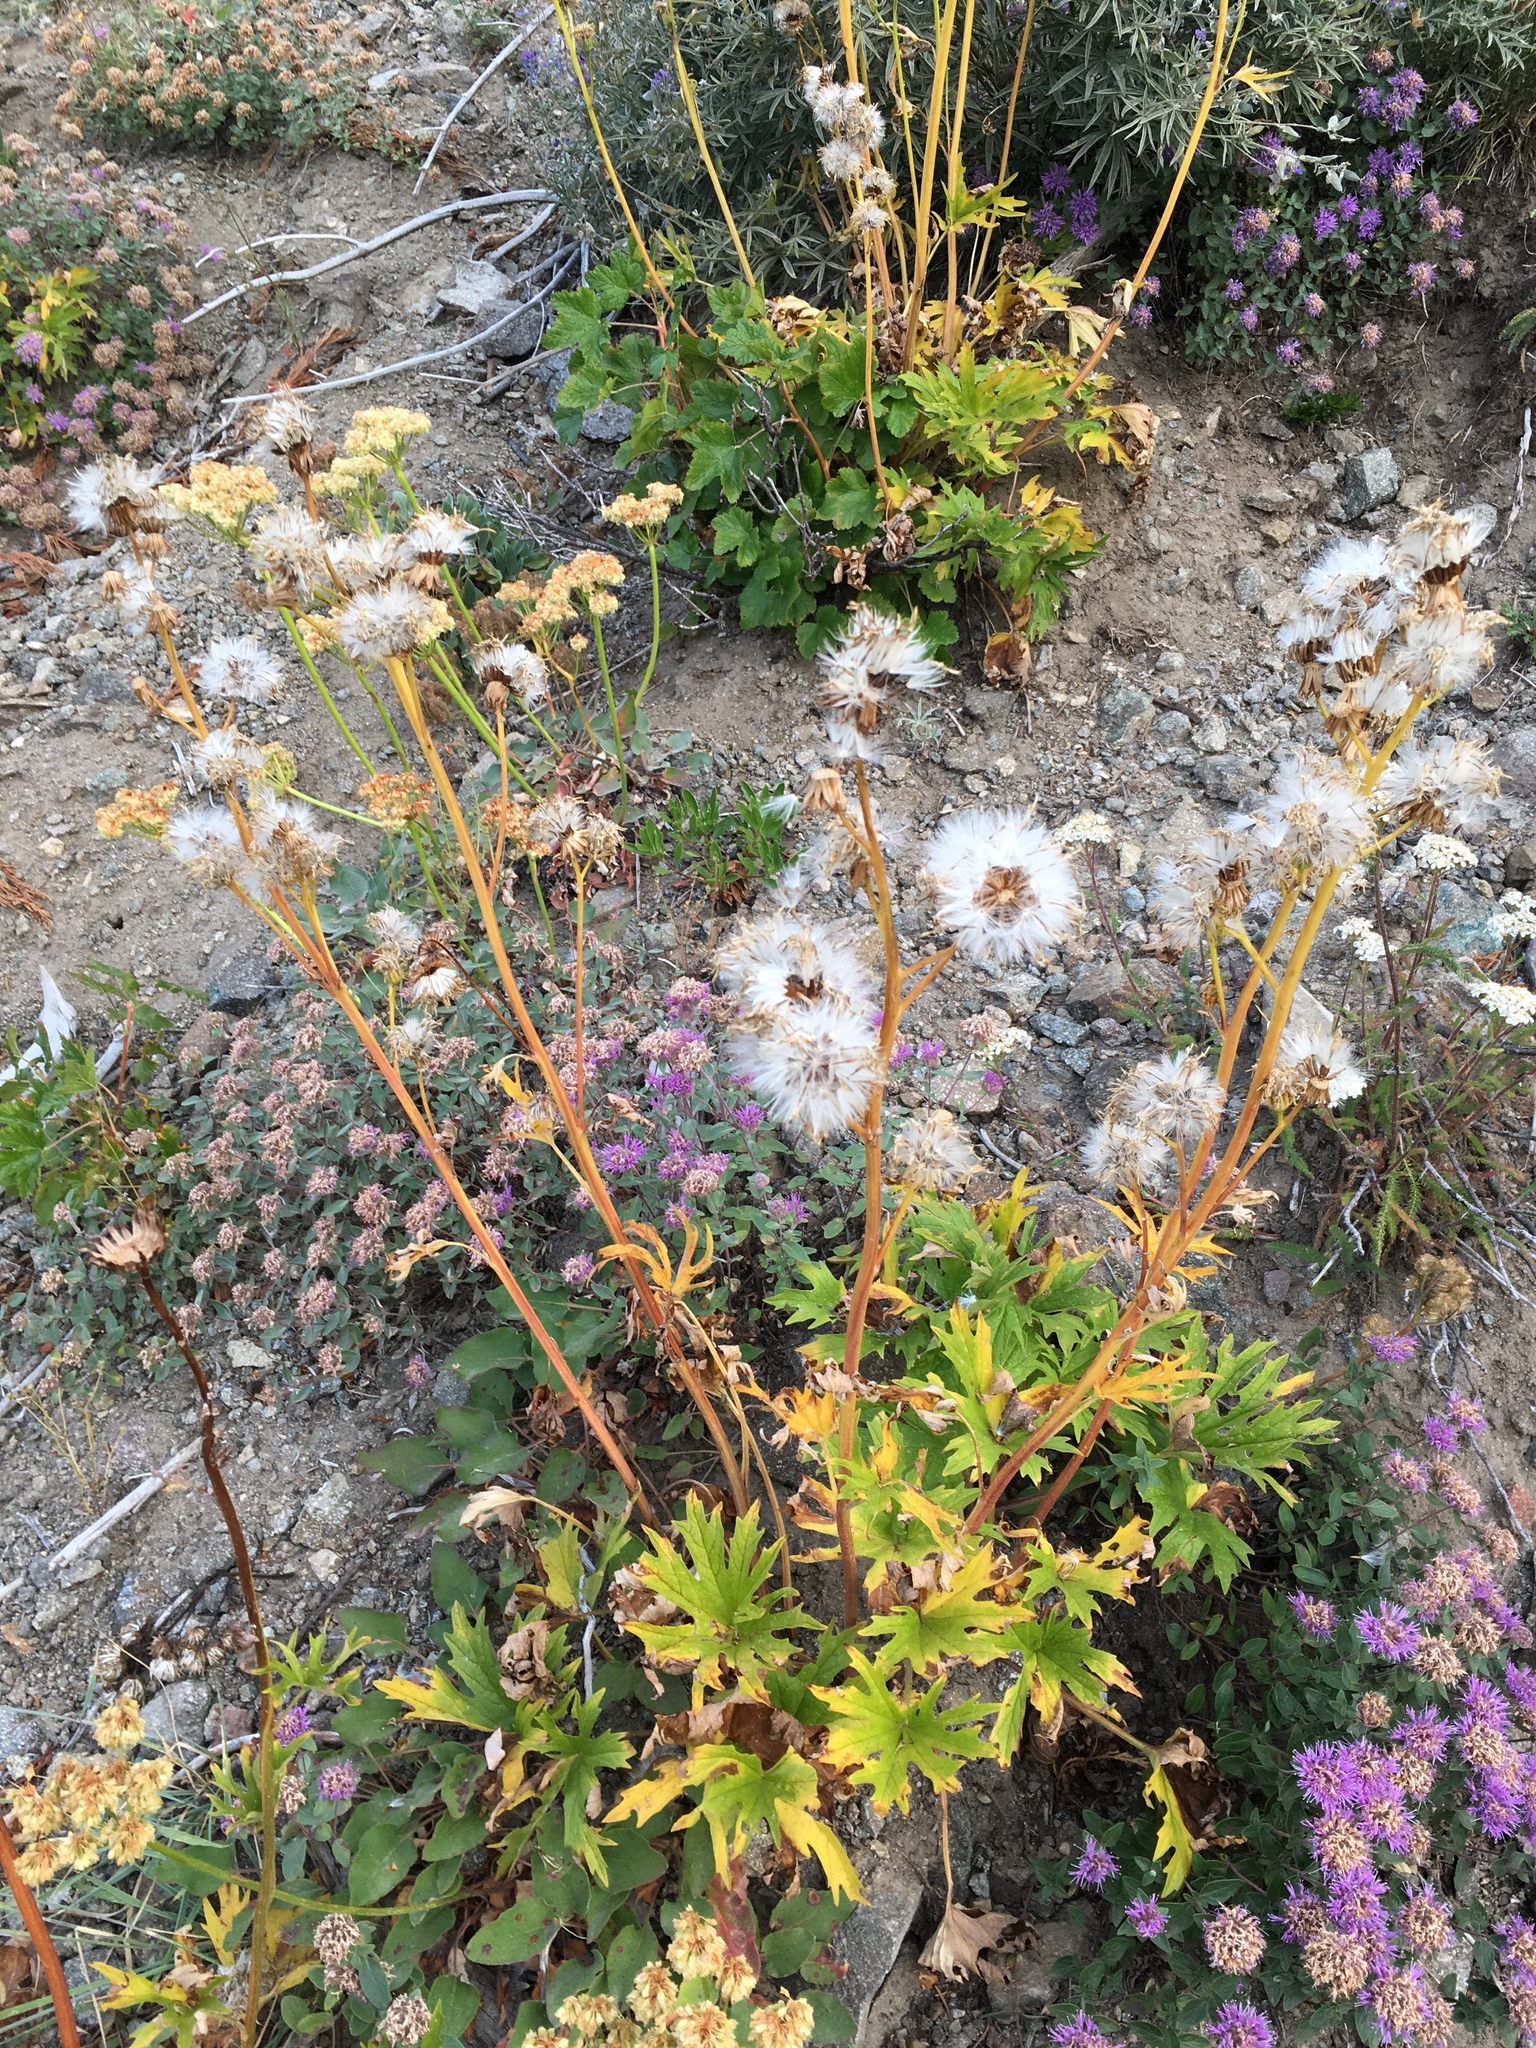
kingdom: Plantae
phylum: Tracheophyta
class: Magnoliopsida
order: Asterales
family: Asteraceae
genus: Cacaliopsis
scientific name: Cacaliopsis nardosmia
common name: Silvercrown
